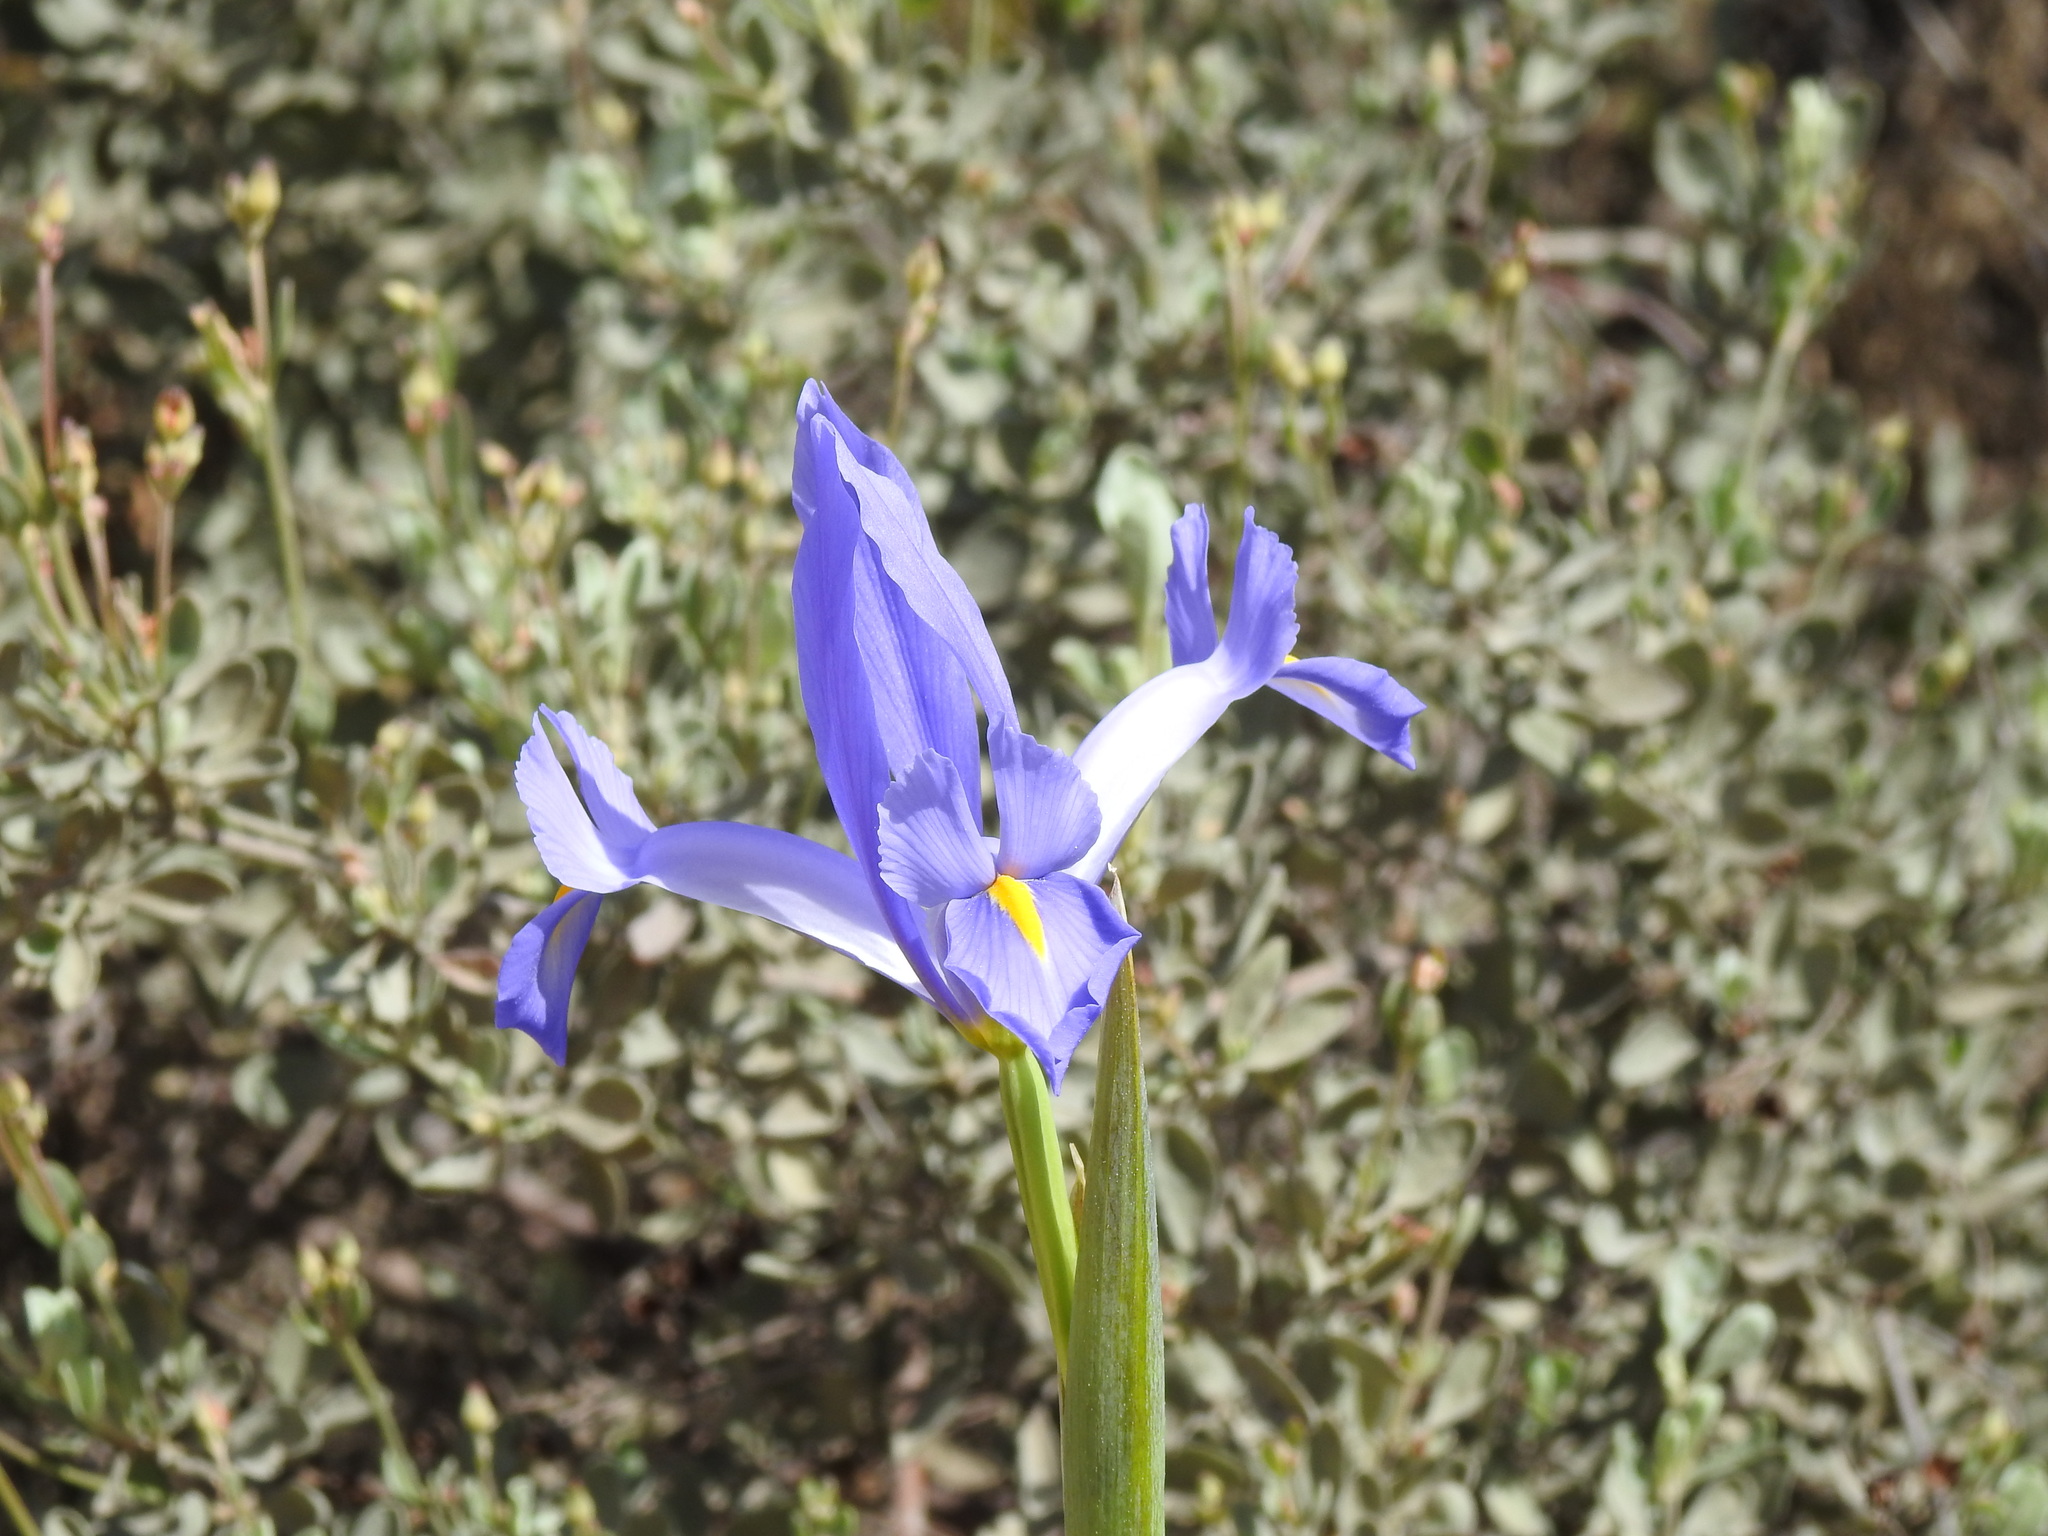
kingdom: Plantae
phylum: Tracheophyta
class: Liliopsida
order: Asparagales
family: Iridaceae
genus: Iris
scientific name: Iris xiphium
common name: Spanish iris
